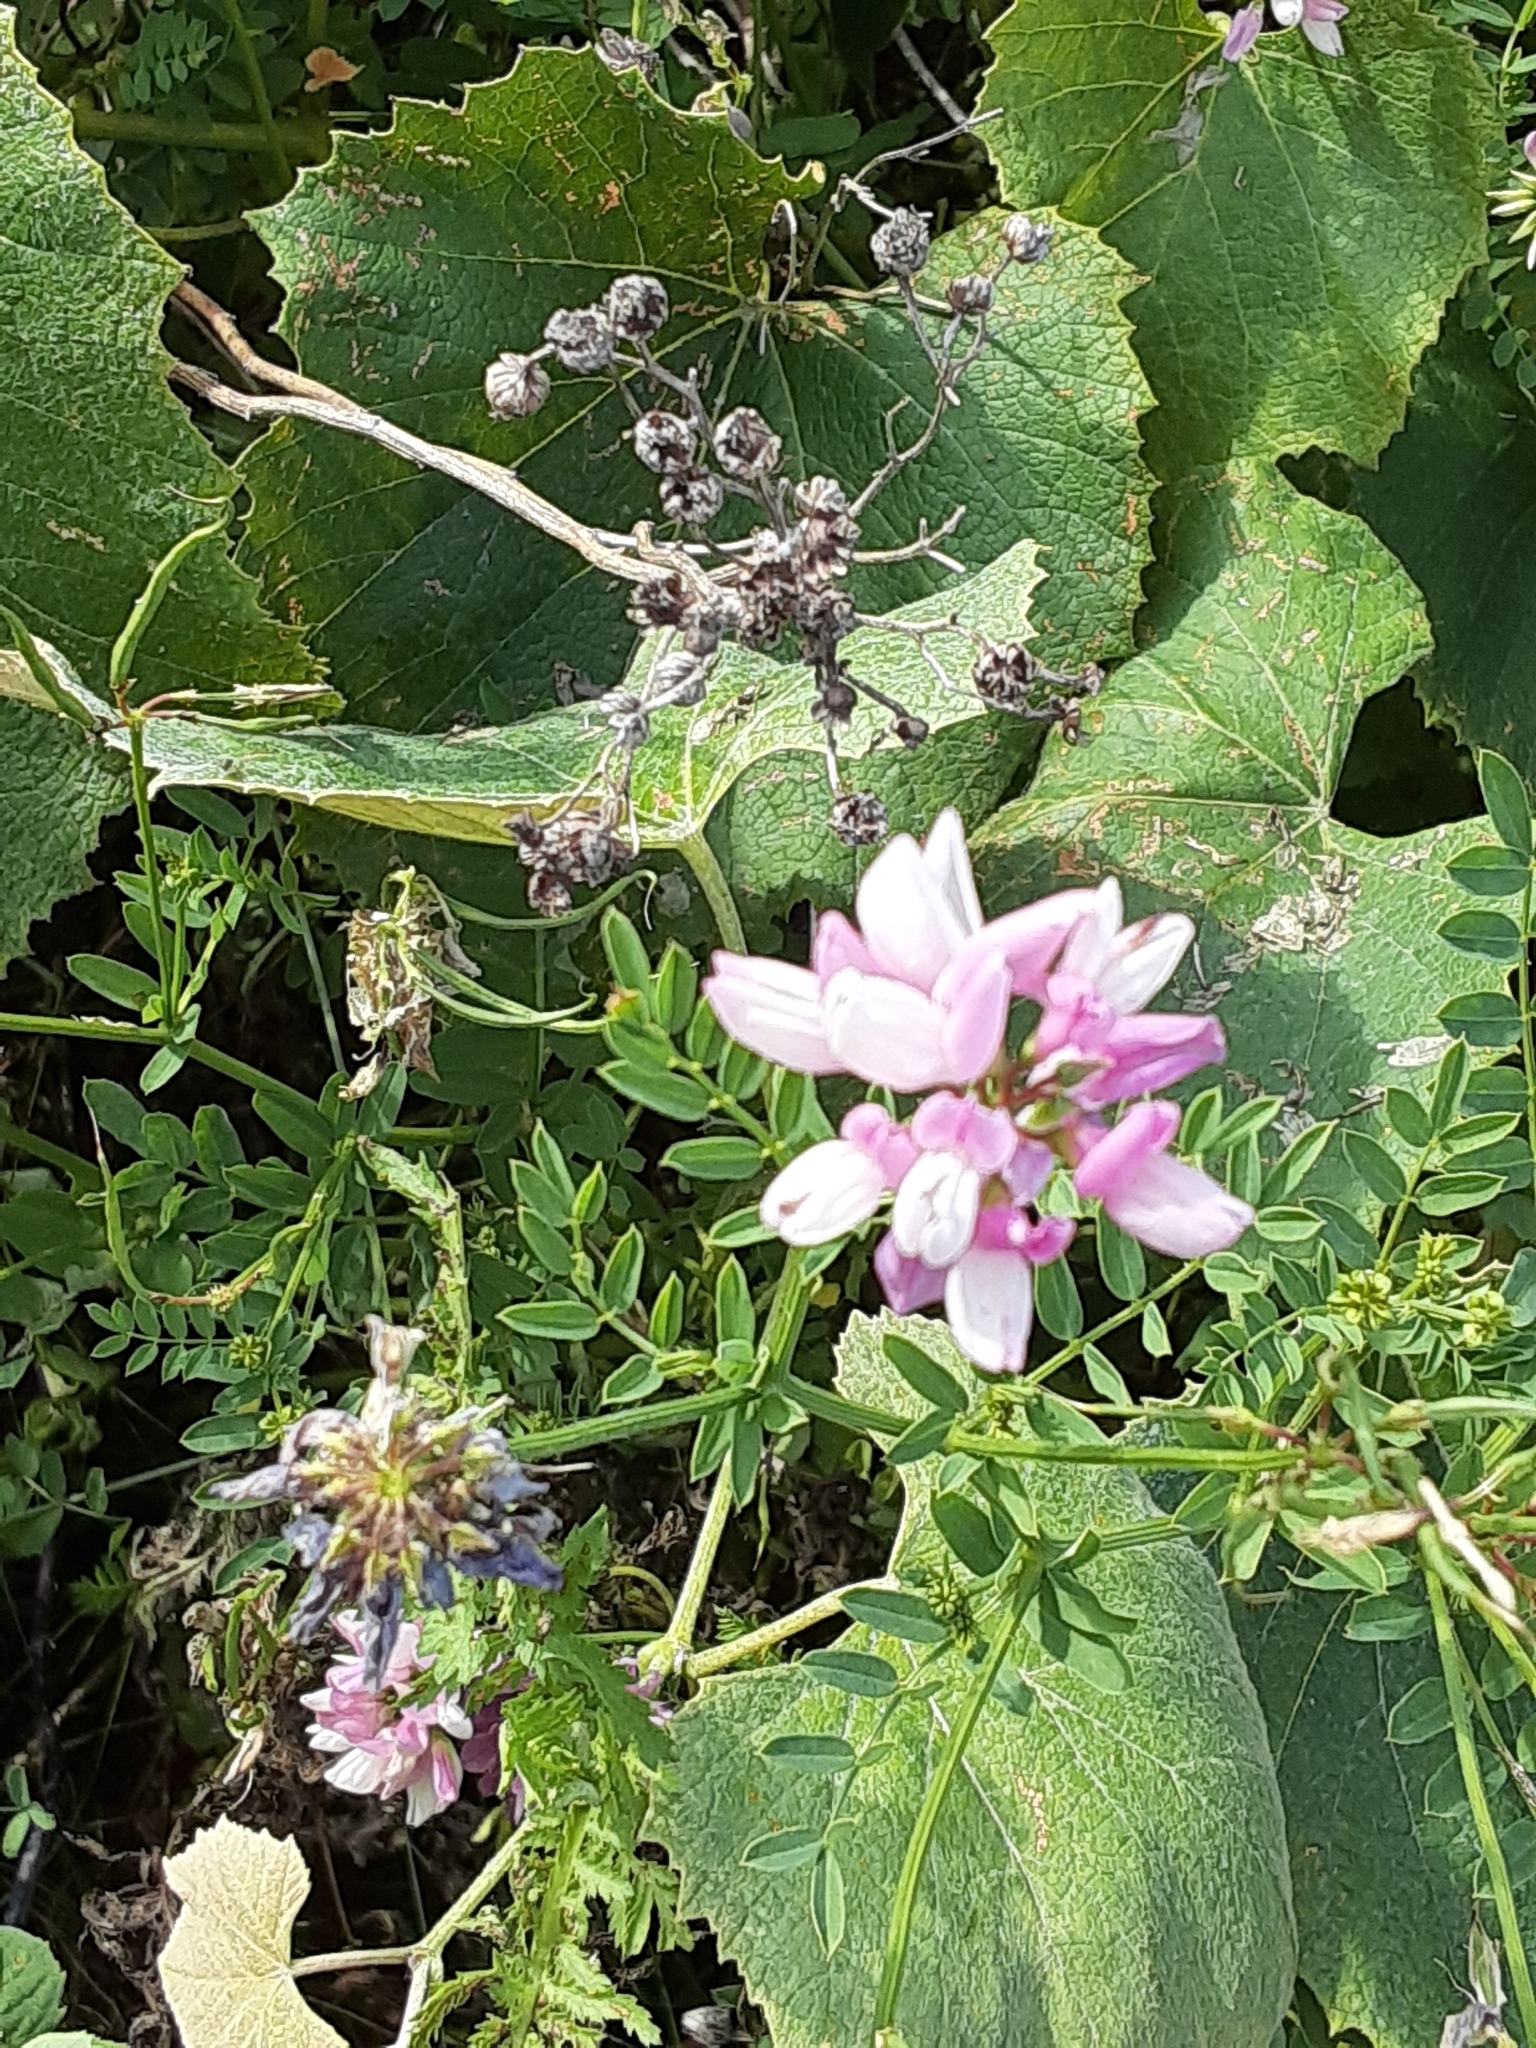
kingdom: Plantae
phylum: Tracheophyta
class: Magnoliopsida
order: Fabales
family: Fabaceae
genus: Coronilla
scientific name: Coronilla varia
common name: Crownvetch
